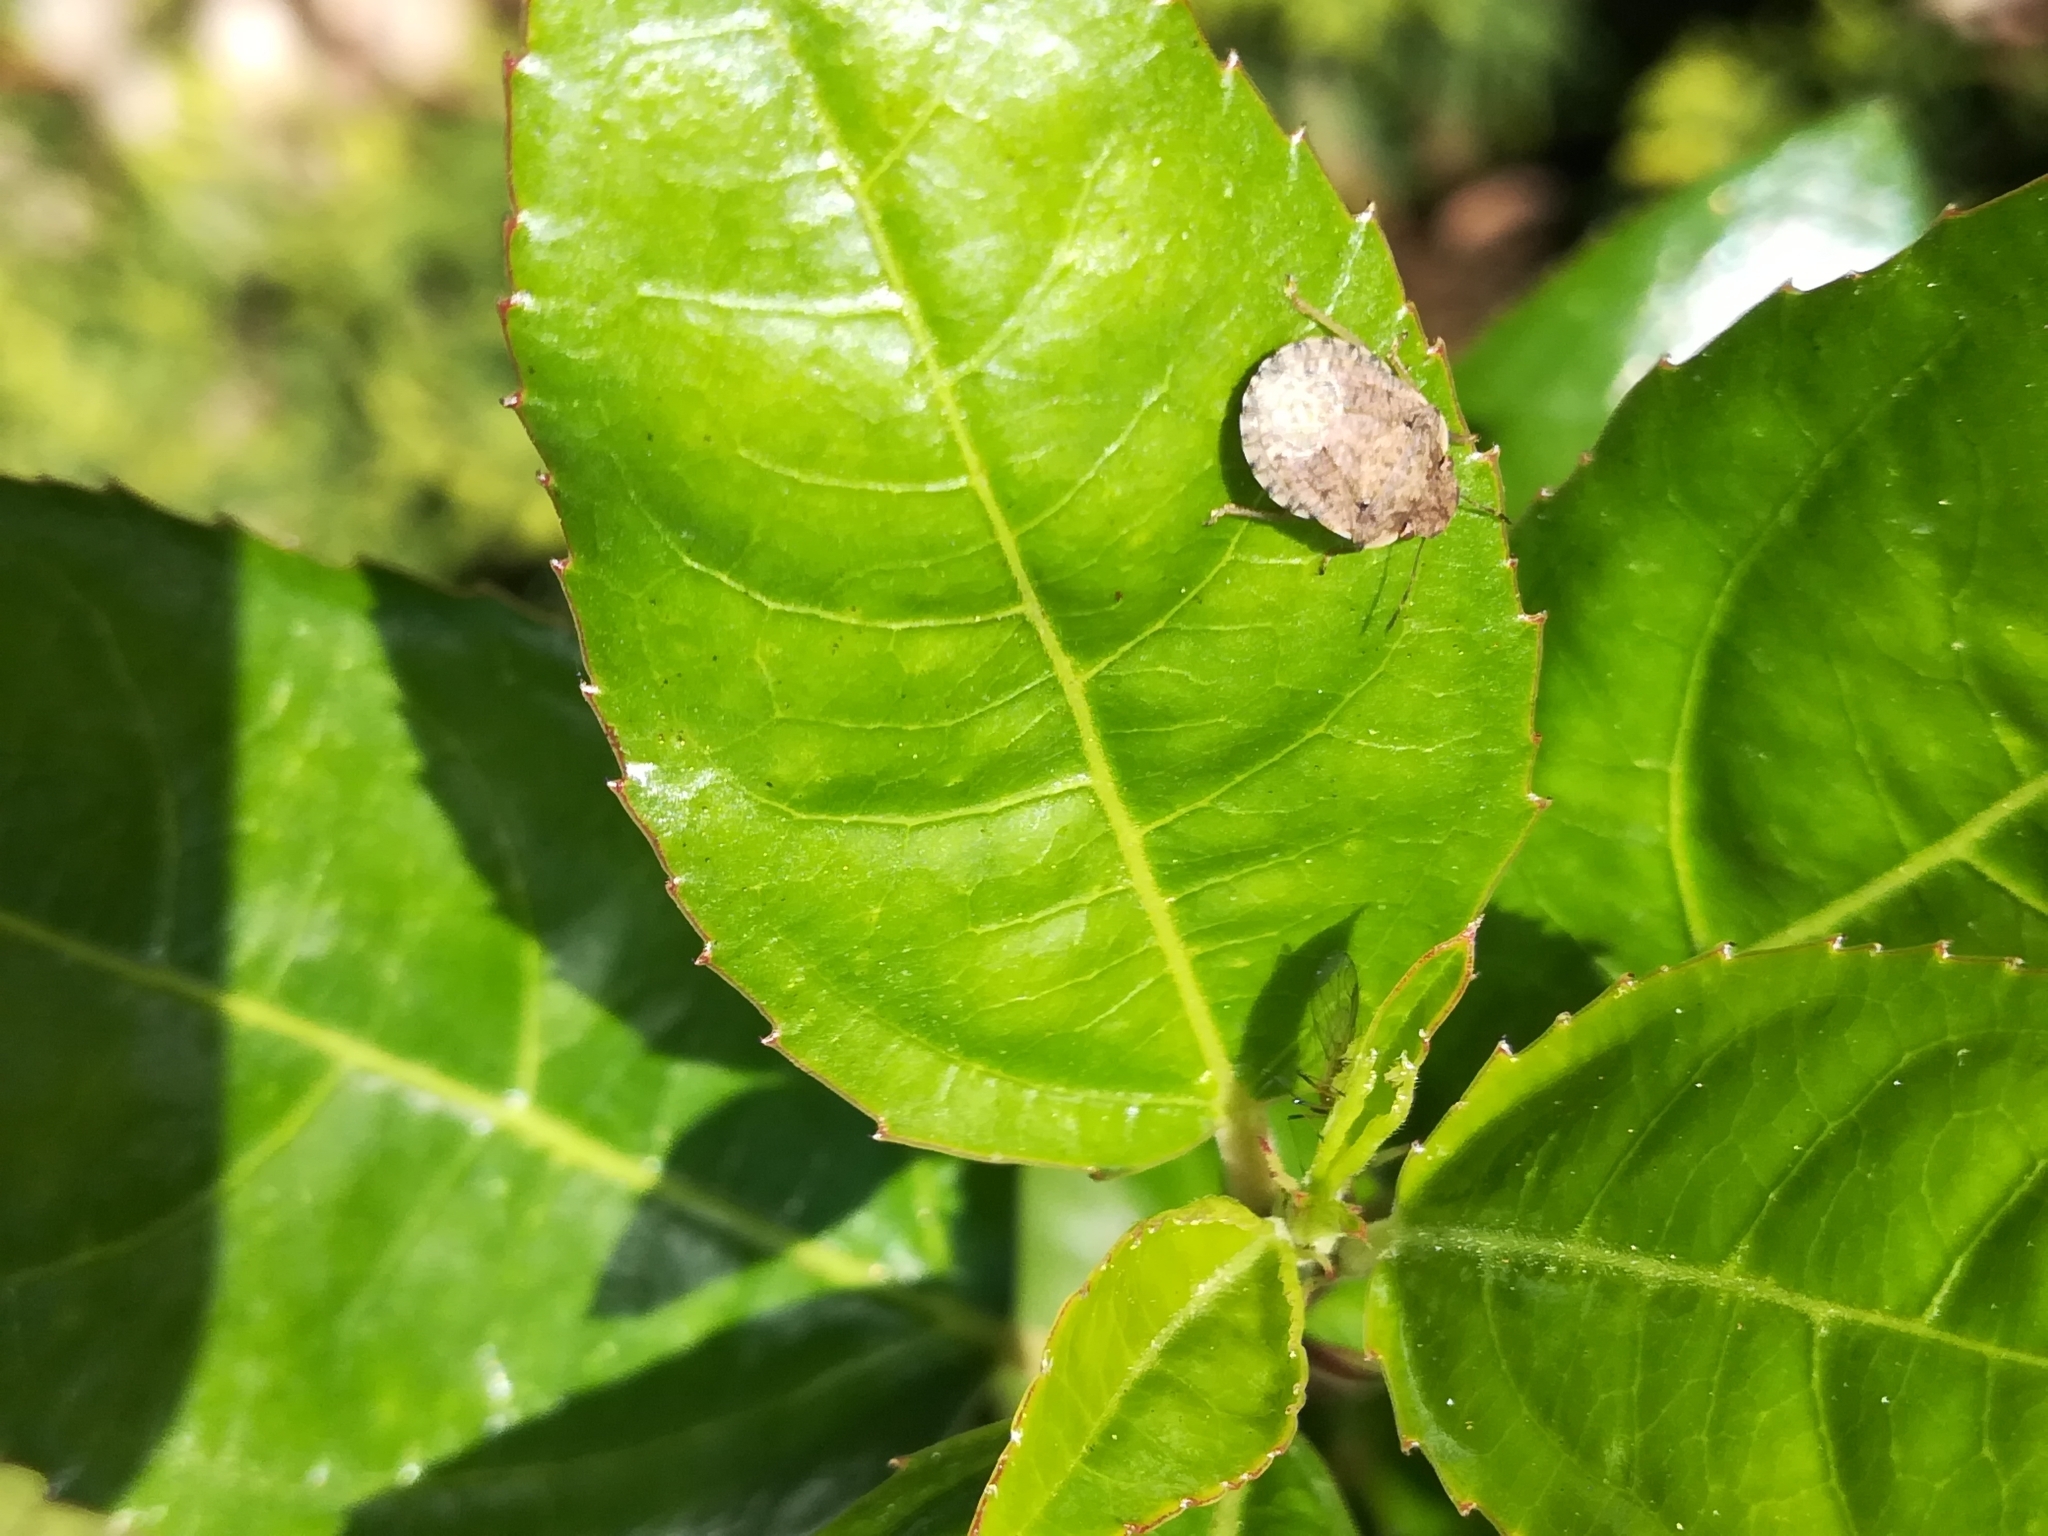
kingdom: Animalia
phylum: Arthropoda
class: Insecta
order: Hemiptera
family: Pentatomidae
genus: Sciocoris
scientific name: Sciocoris sideritidis
